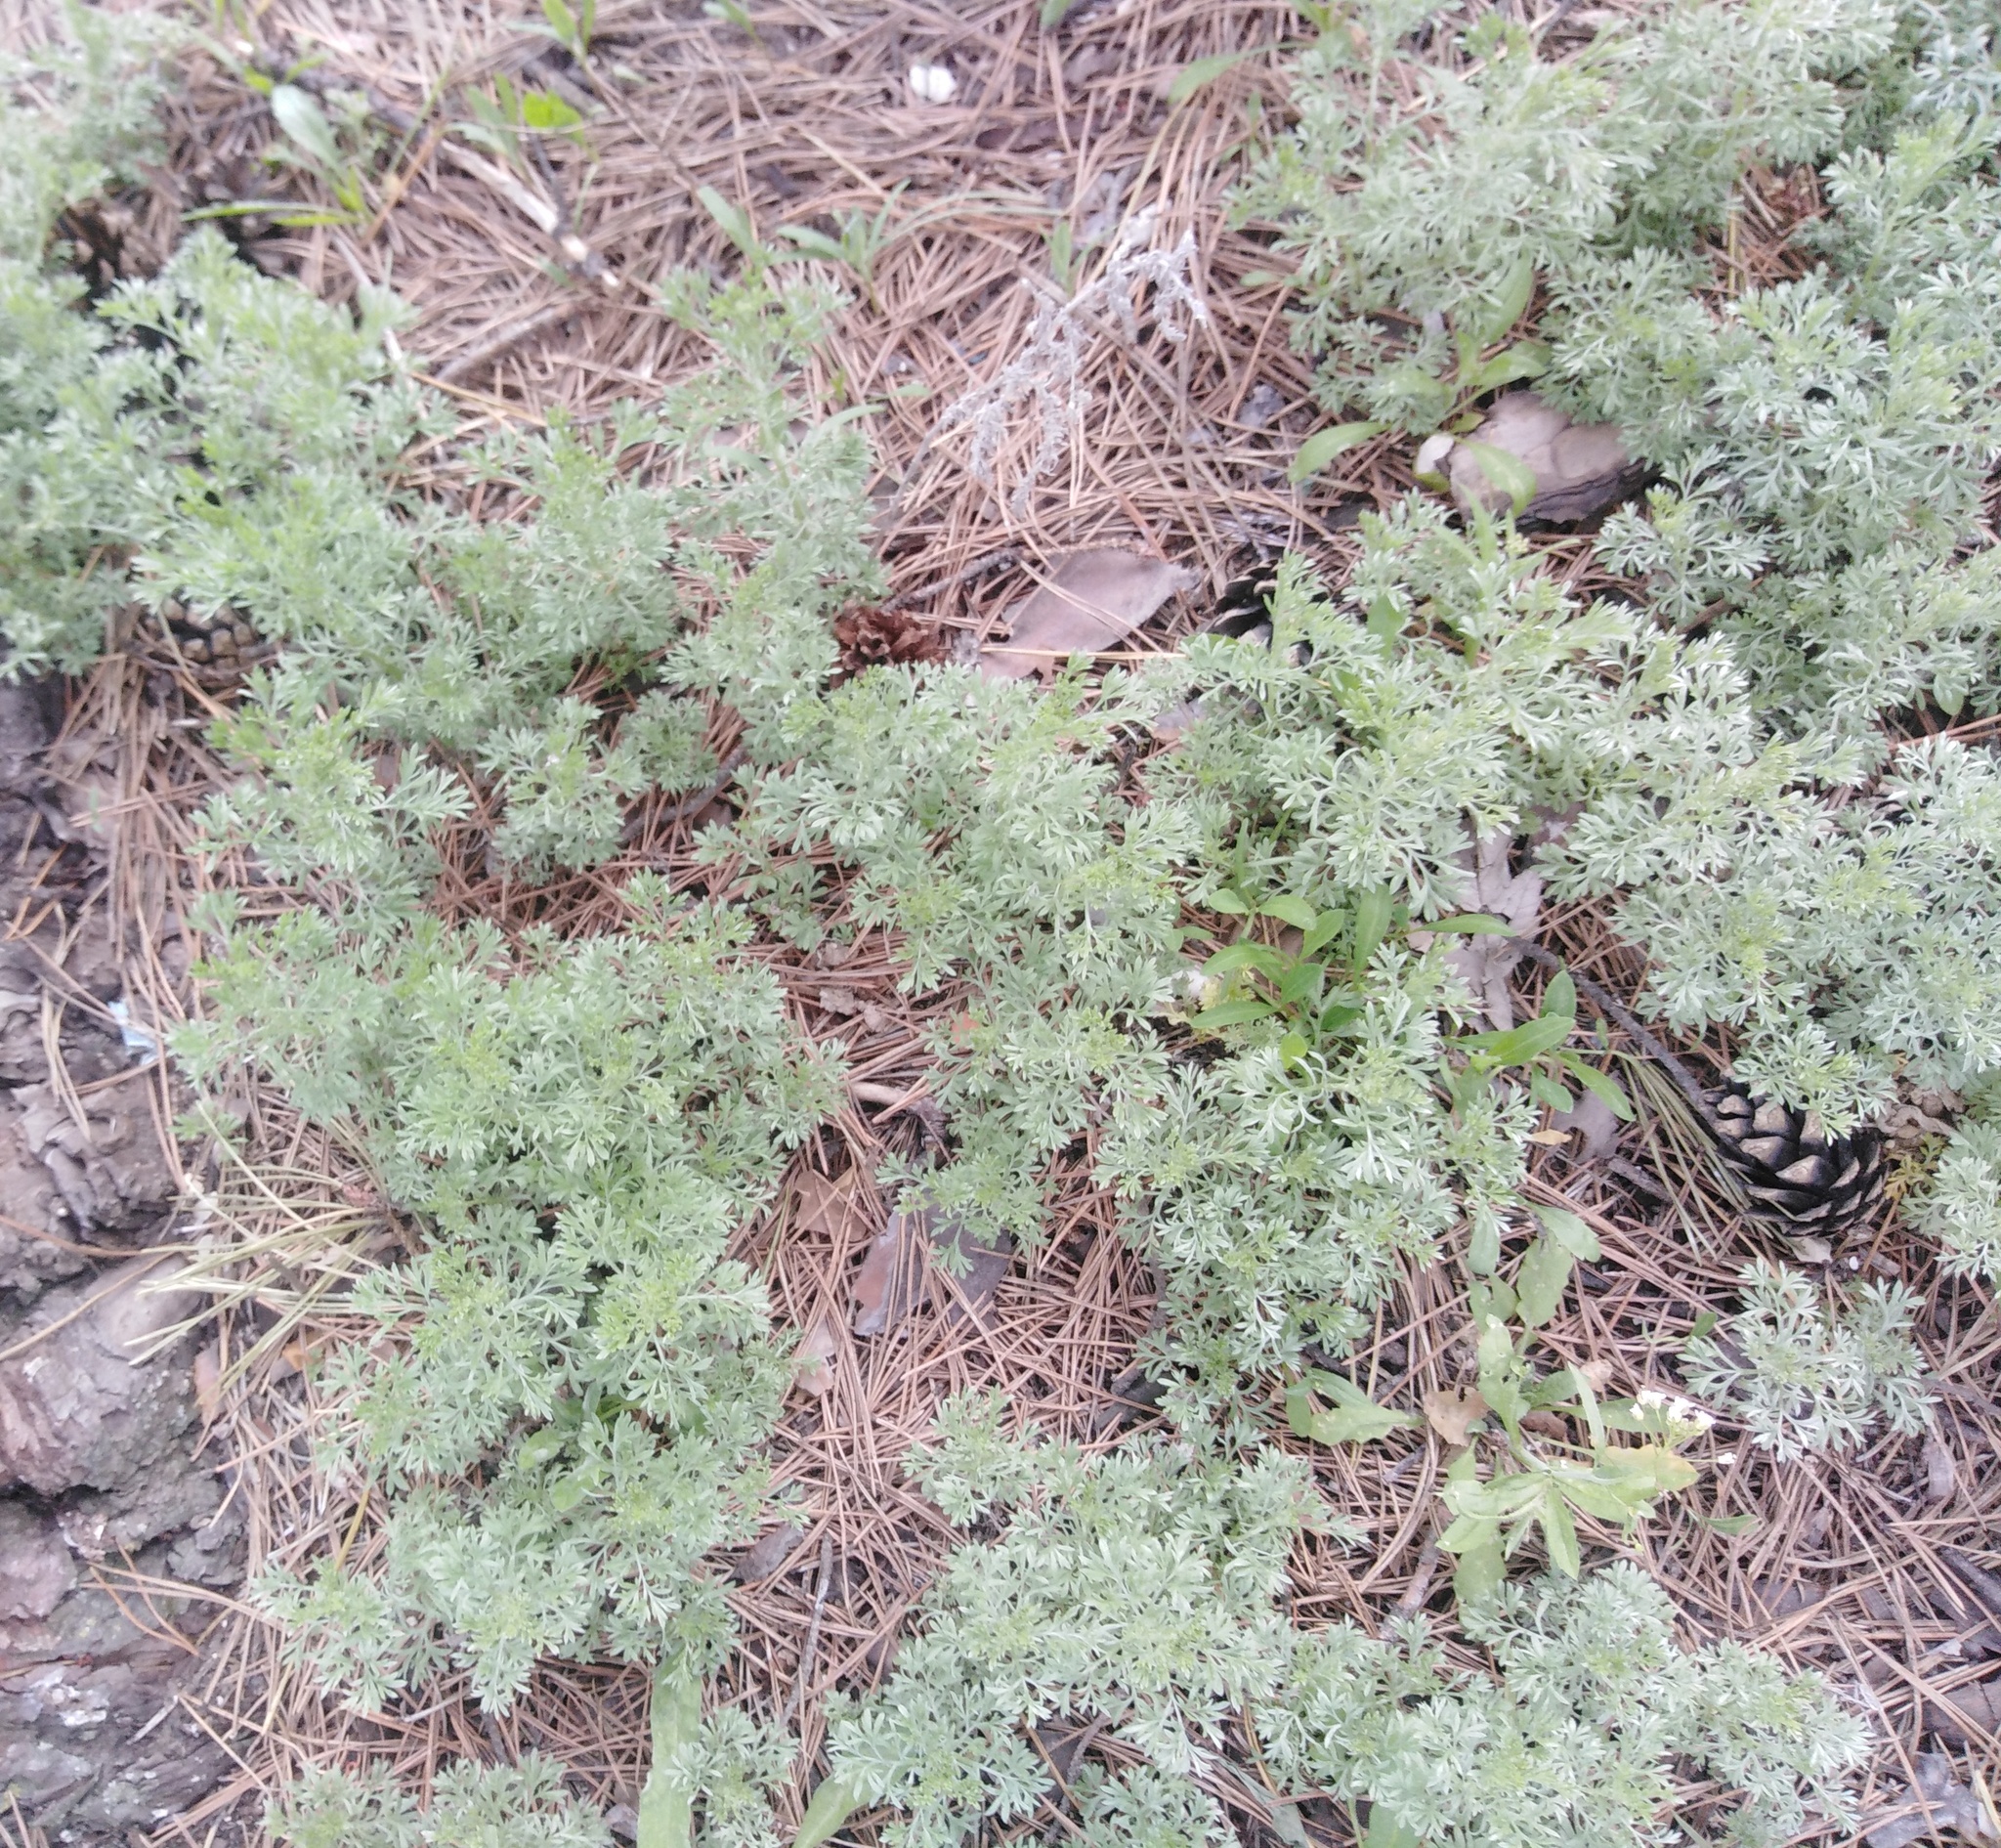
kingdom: Plantae
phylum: Tracheophyta
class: Magnoliopsida
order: Asterales
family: Asteraceae
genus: Artemisia
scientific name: Artemisia austriaca
